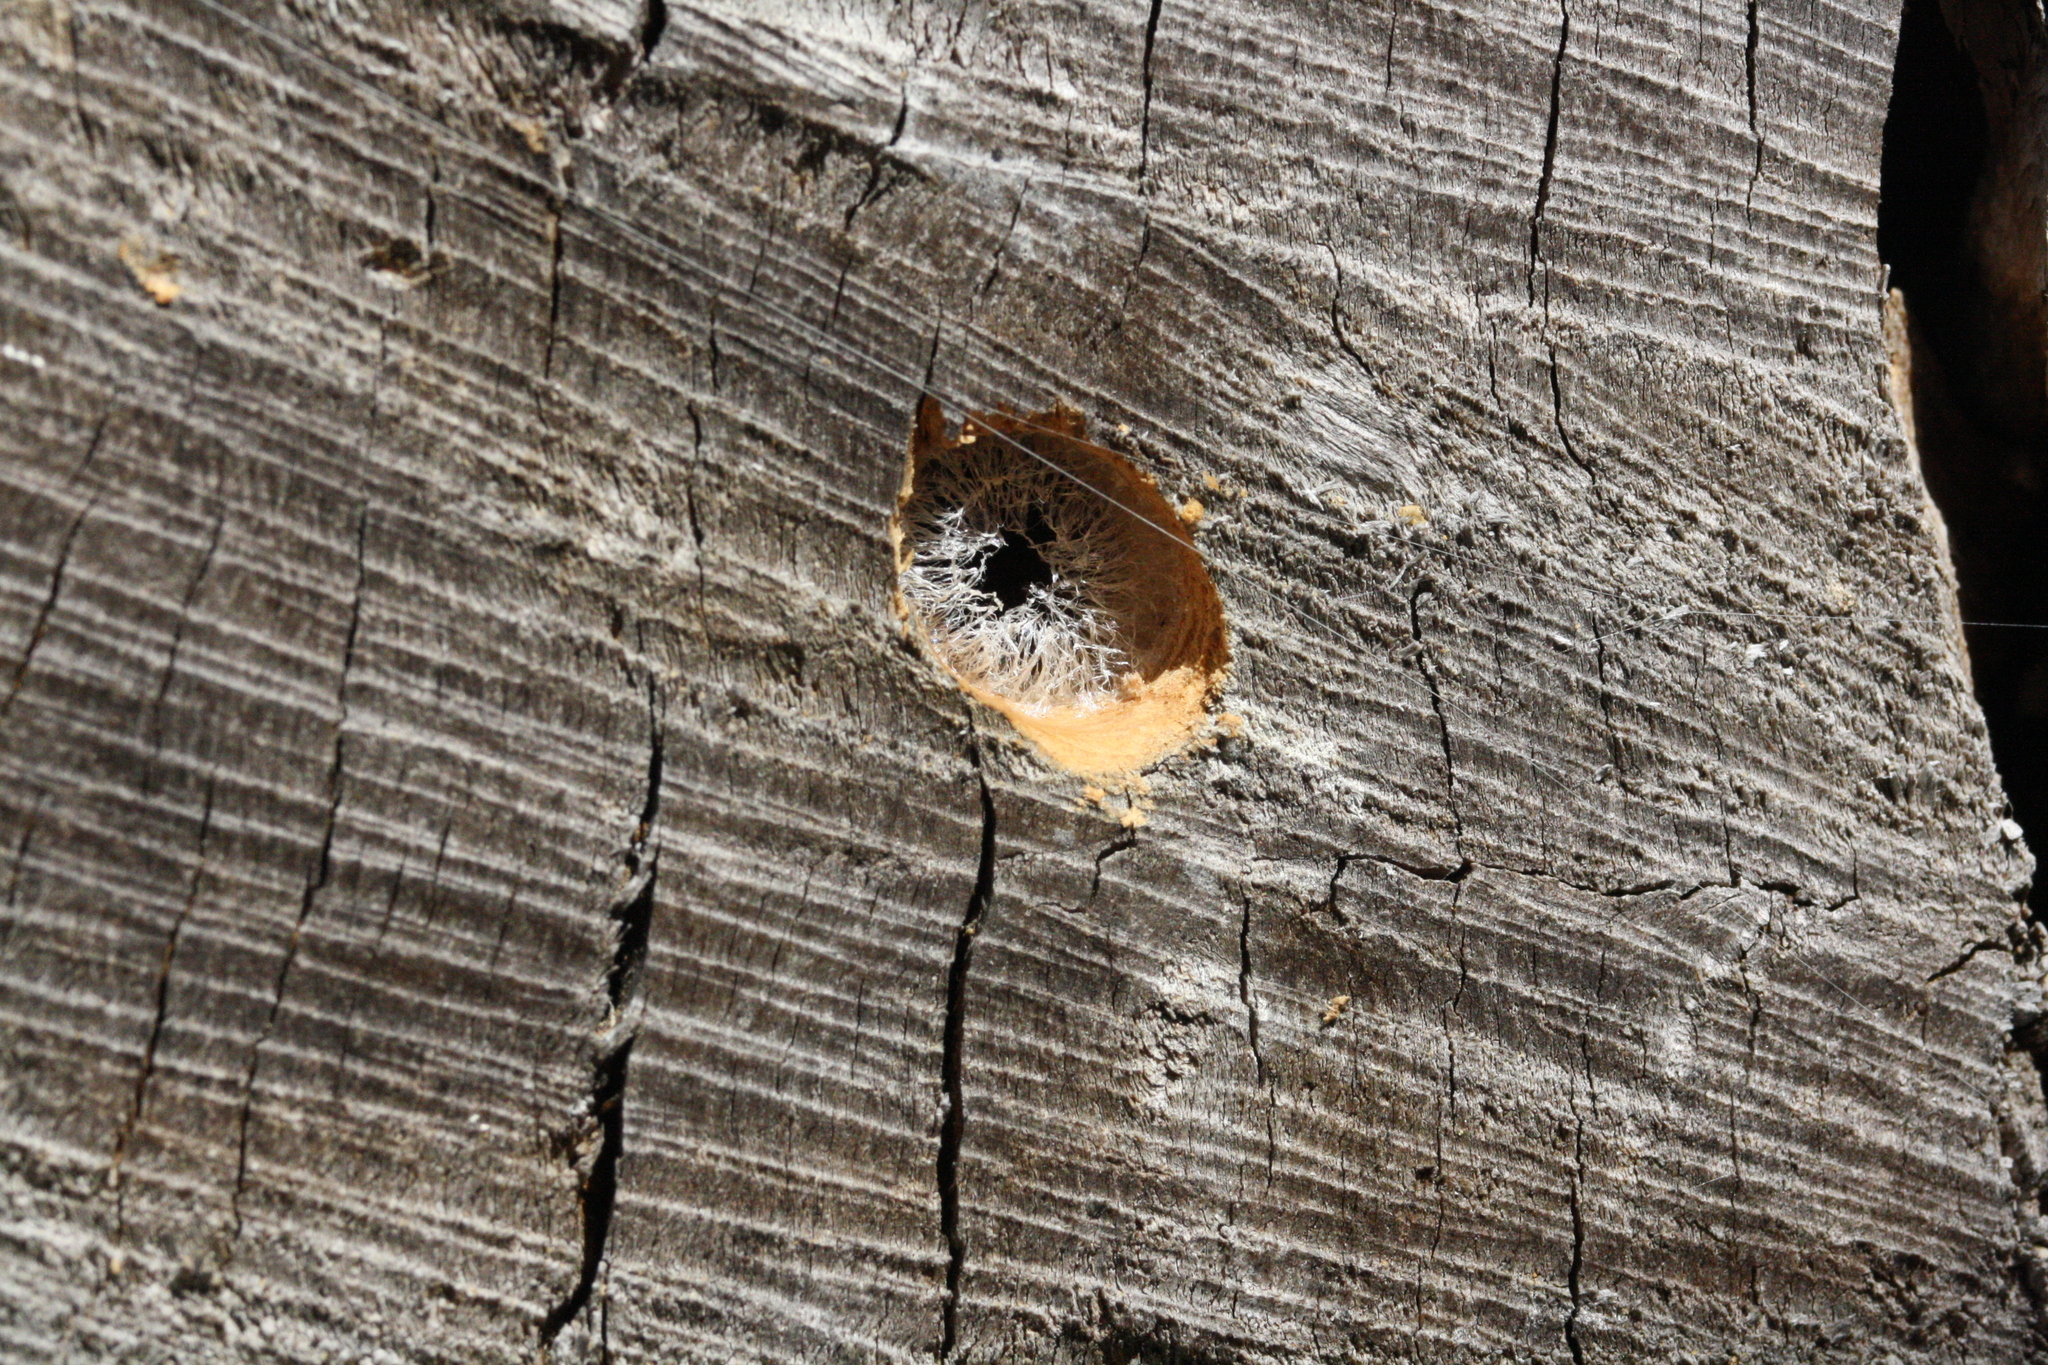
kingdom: Animalia
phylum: Arthropoda
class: Insecta
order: Hymenoptera
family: Colletidae
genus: Hyleoides
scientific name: Hyleoides concinna
